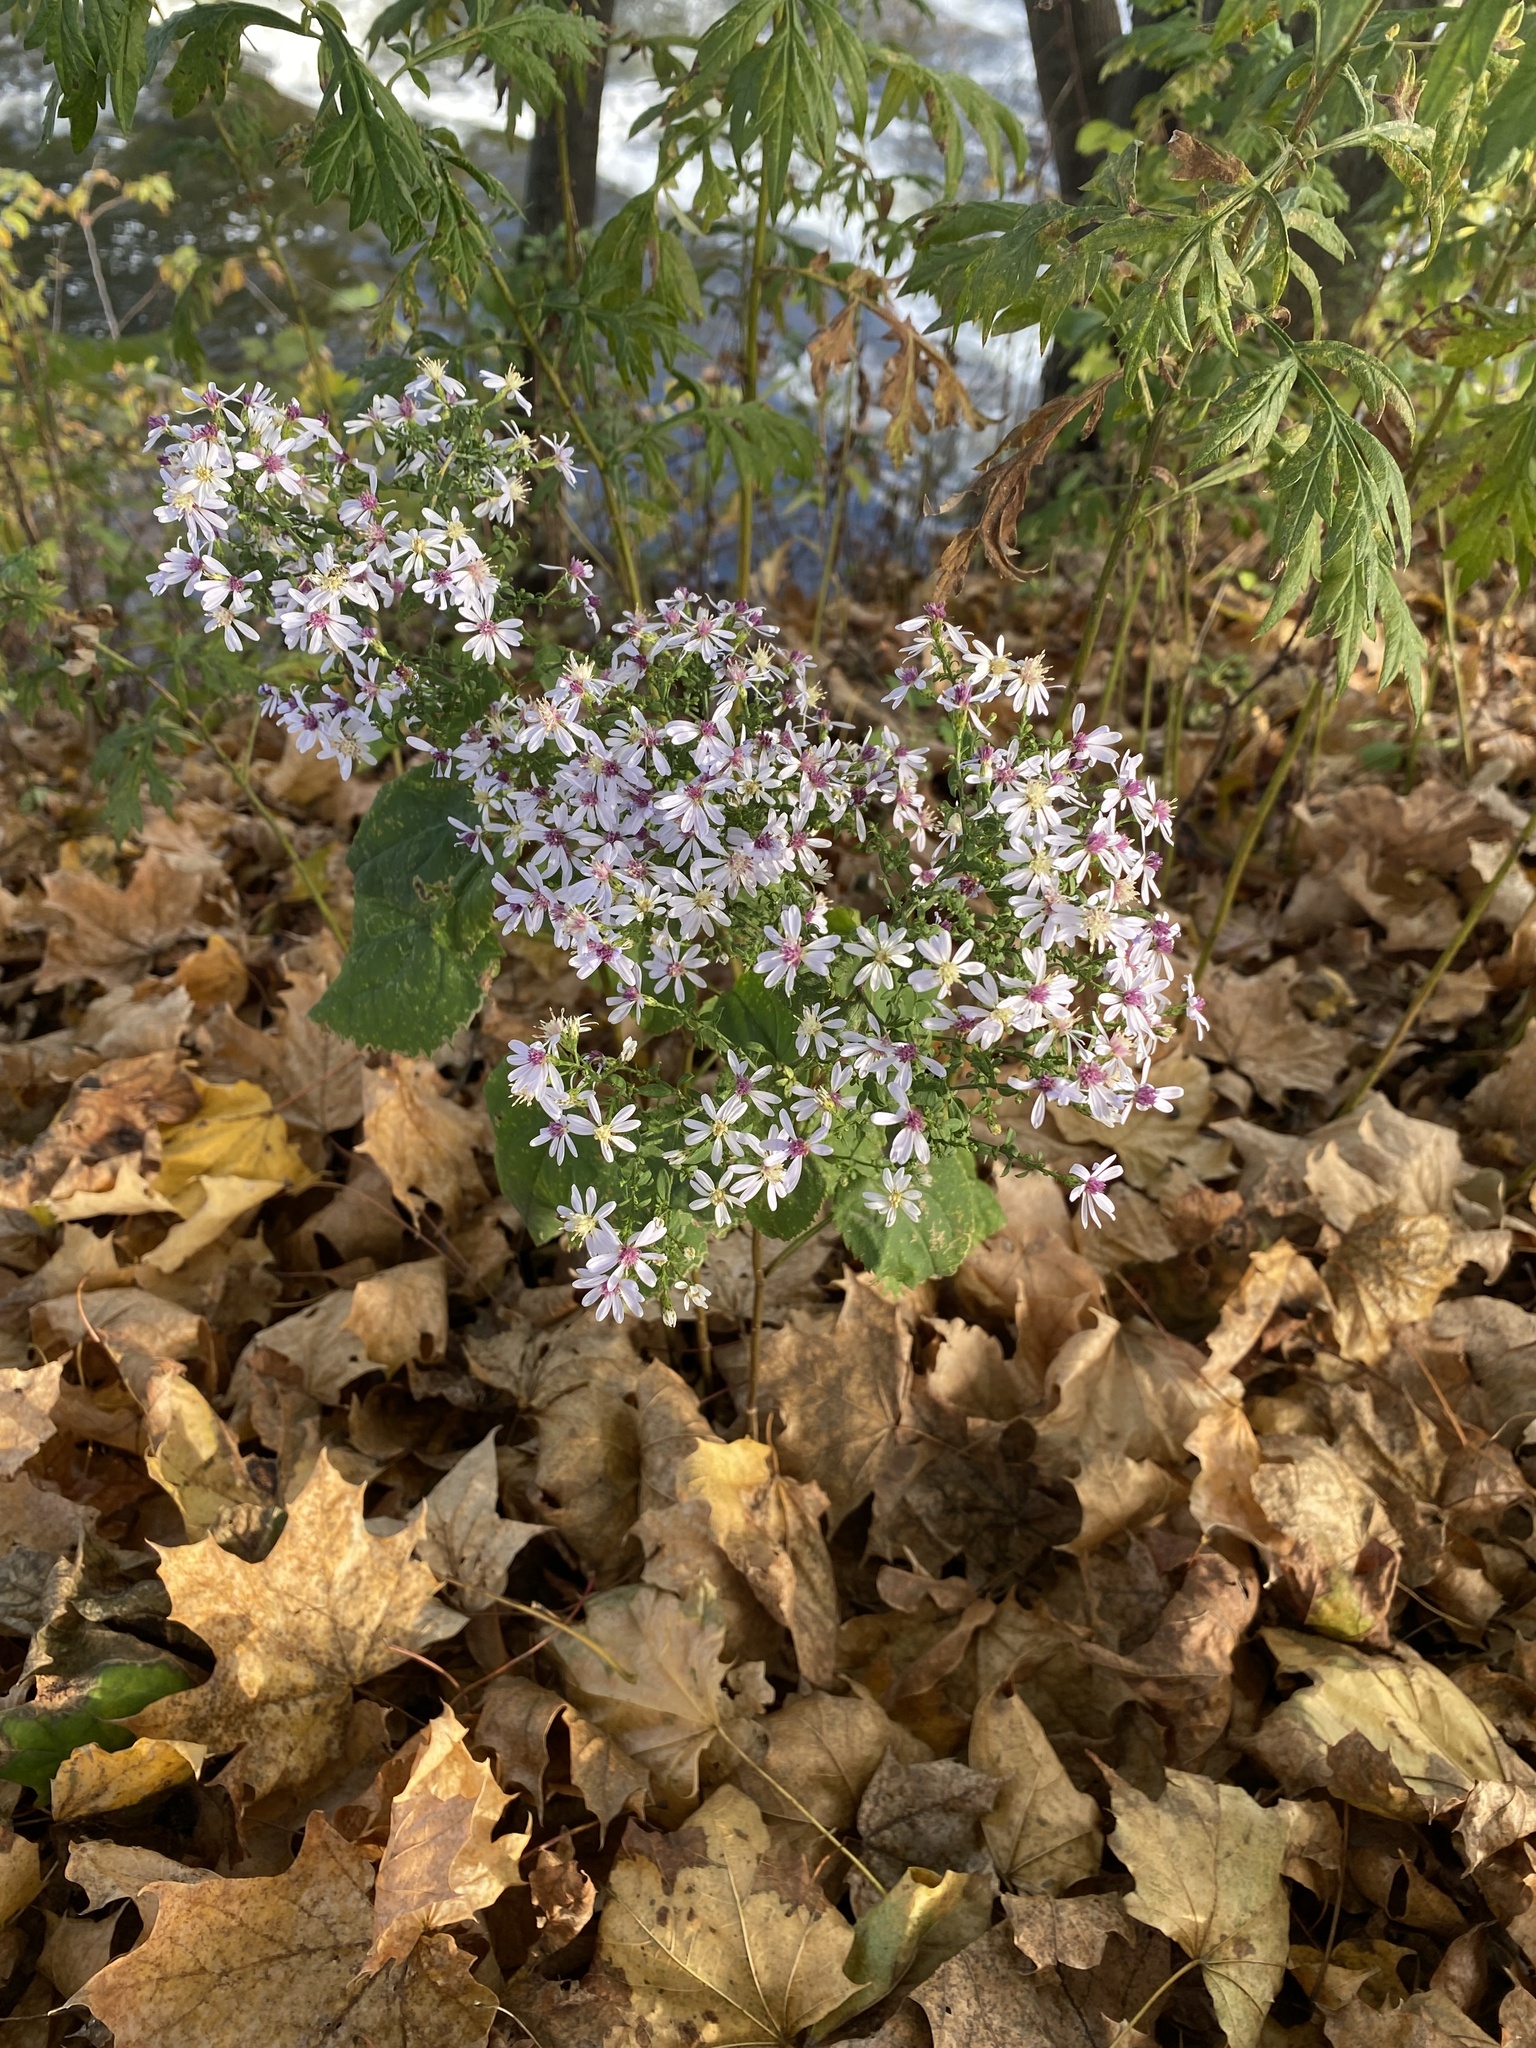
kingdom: Plantae
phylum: Tracheophyta
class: Magnoliopsida
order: Asterales
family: Asteraceae
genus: Symphyotrichum
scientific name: Symphyotrichum cordifolium
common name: Beeweed
